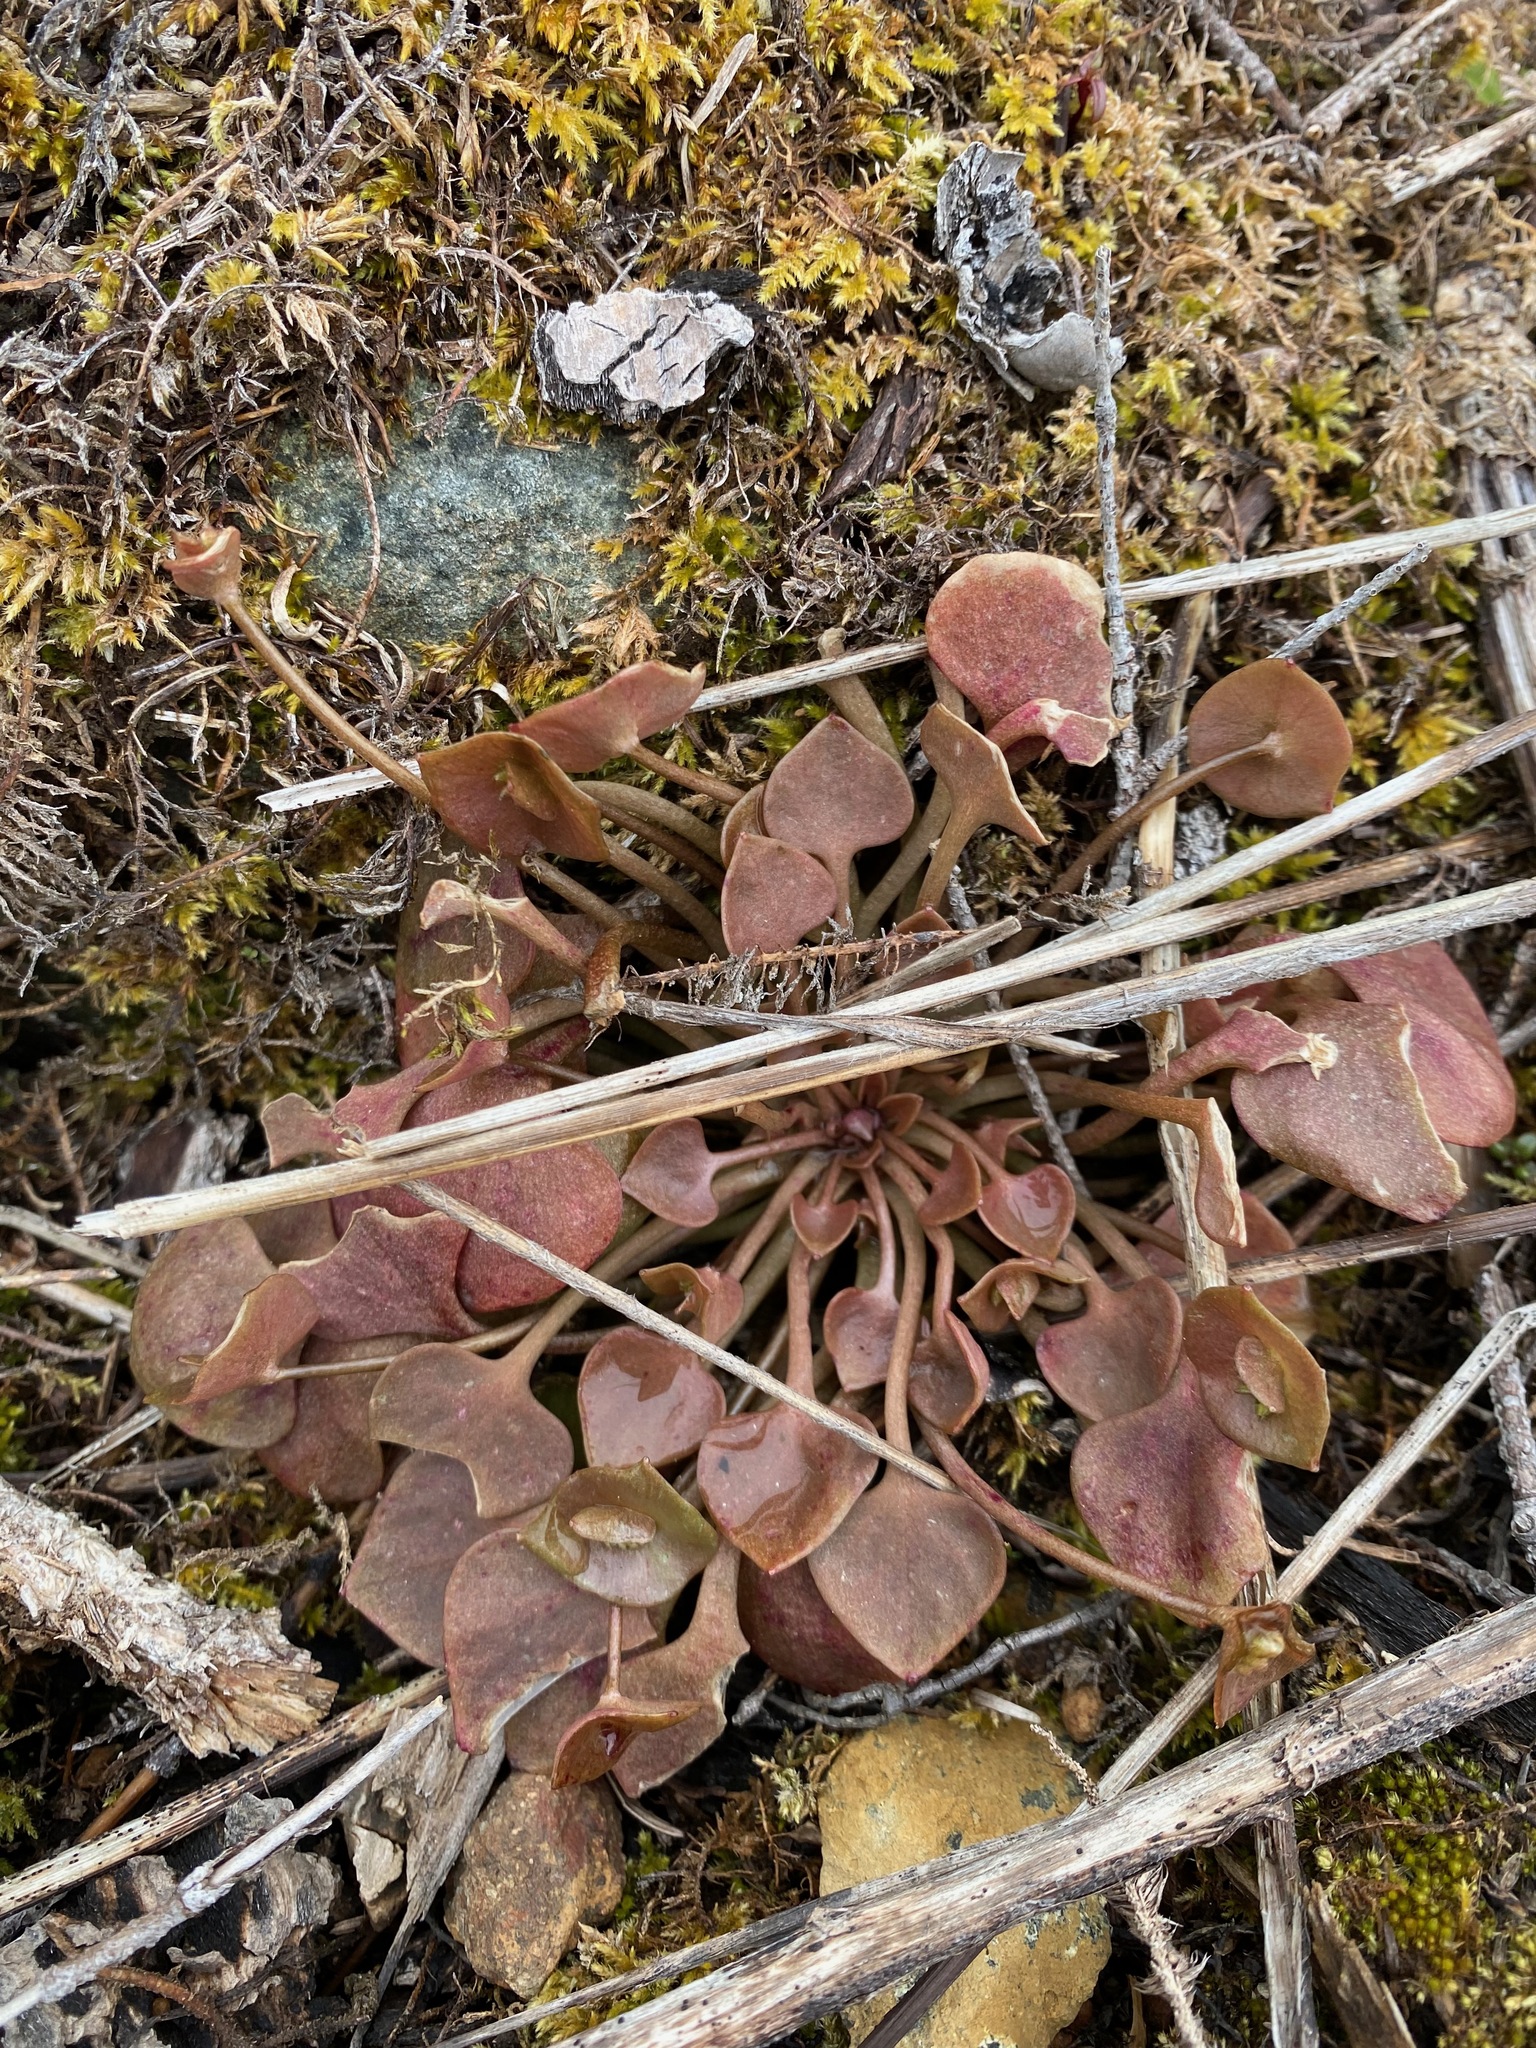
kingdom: Plantae
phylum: Tracheophyta
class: Magnoliopsida
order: Caryophyllales
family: Montiaceae
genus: Claytonia
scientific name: Claytonia rubra
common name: Erubescent miner's-lettuce
